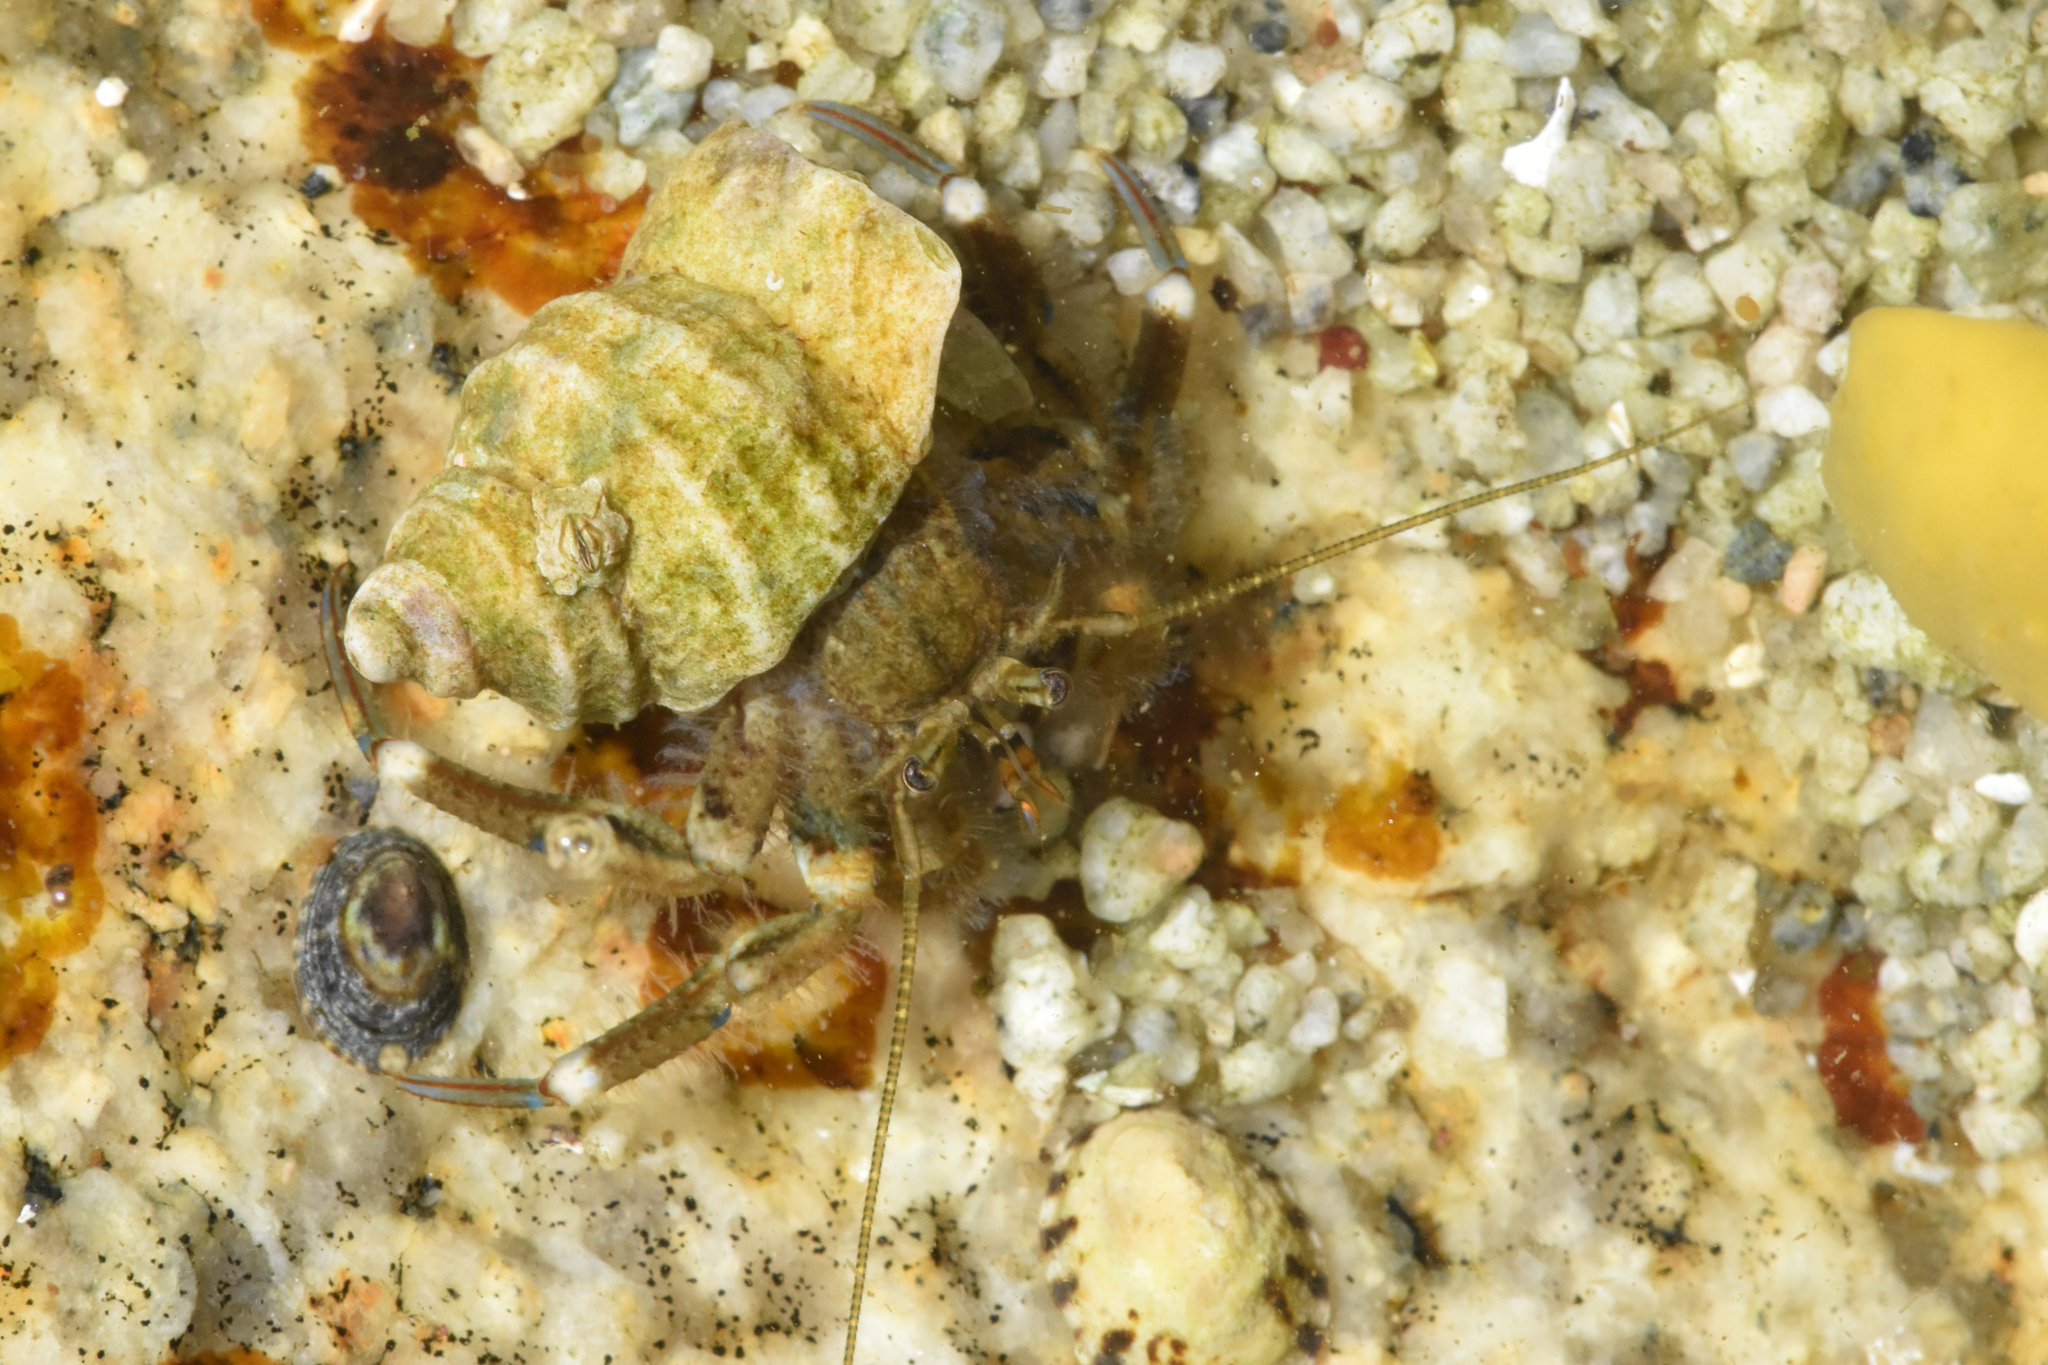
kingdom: Animalia
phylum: Arthropoda
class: Malacostraca
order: Decapoda
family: Paguridae
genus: Pagurus
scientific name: Pagurus hirsutiusculus
